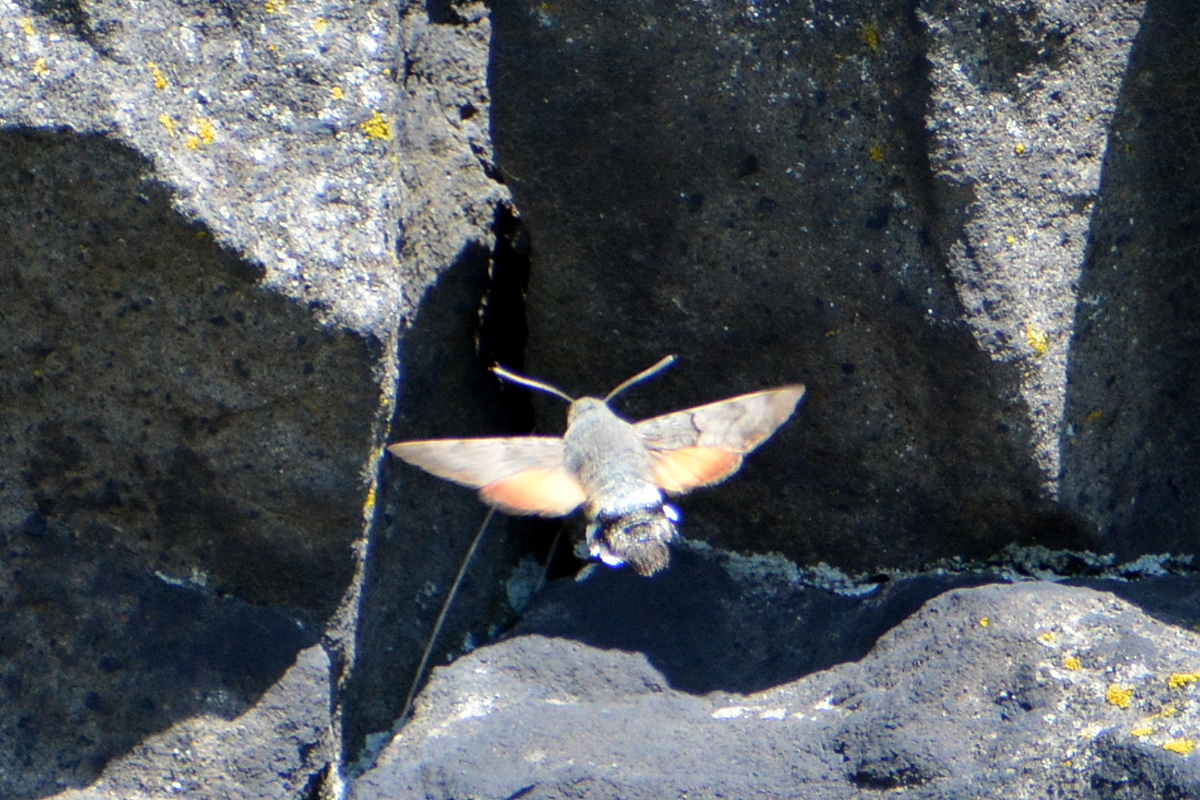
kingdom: Animalia
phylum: Arthropoda
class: Insecta
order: Lepidoptera
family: Sphingidae
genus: Macroglossum
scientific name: Macroglossum stellatarum
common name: Humming-bird hawk-moth
